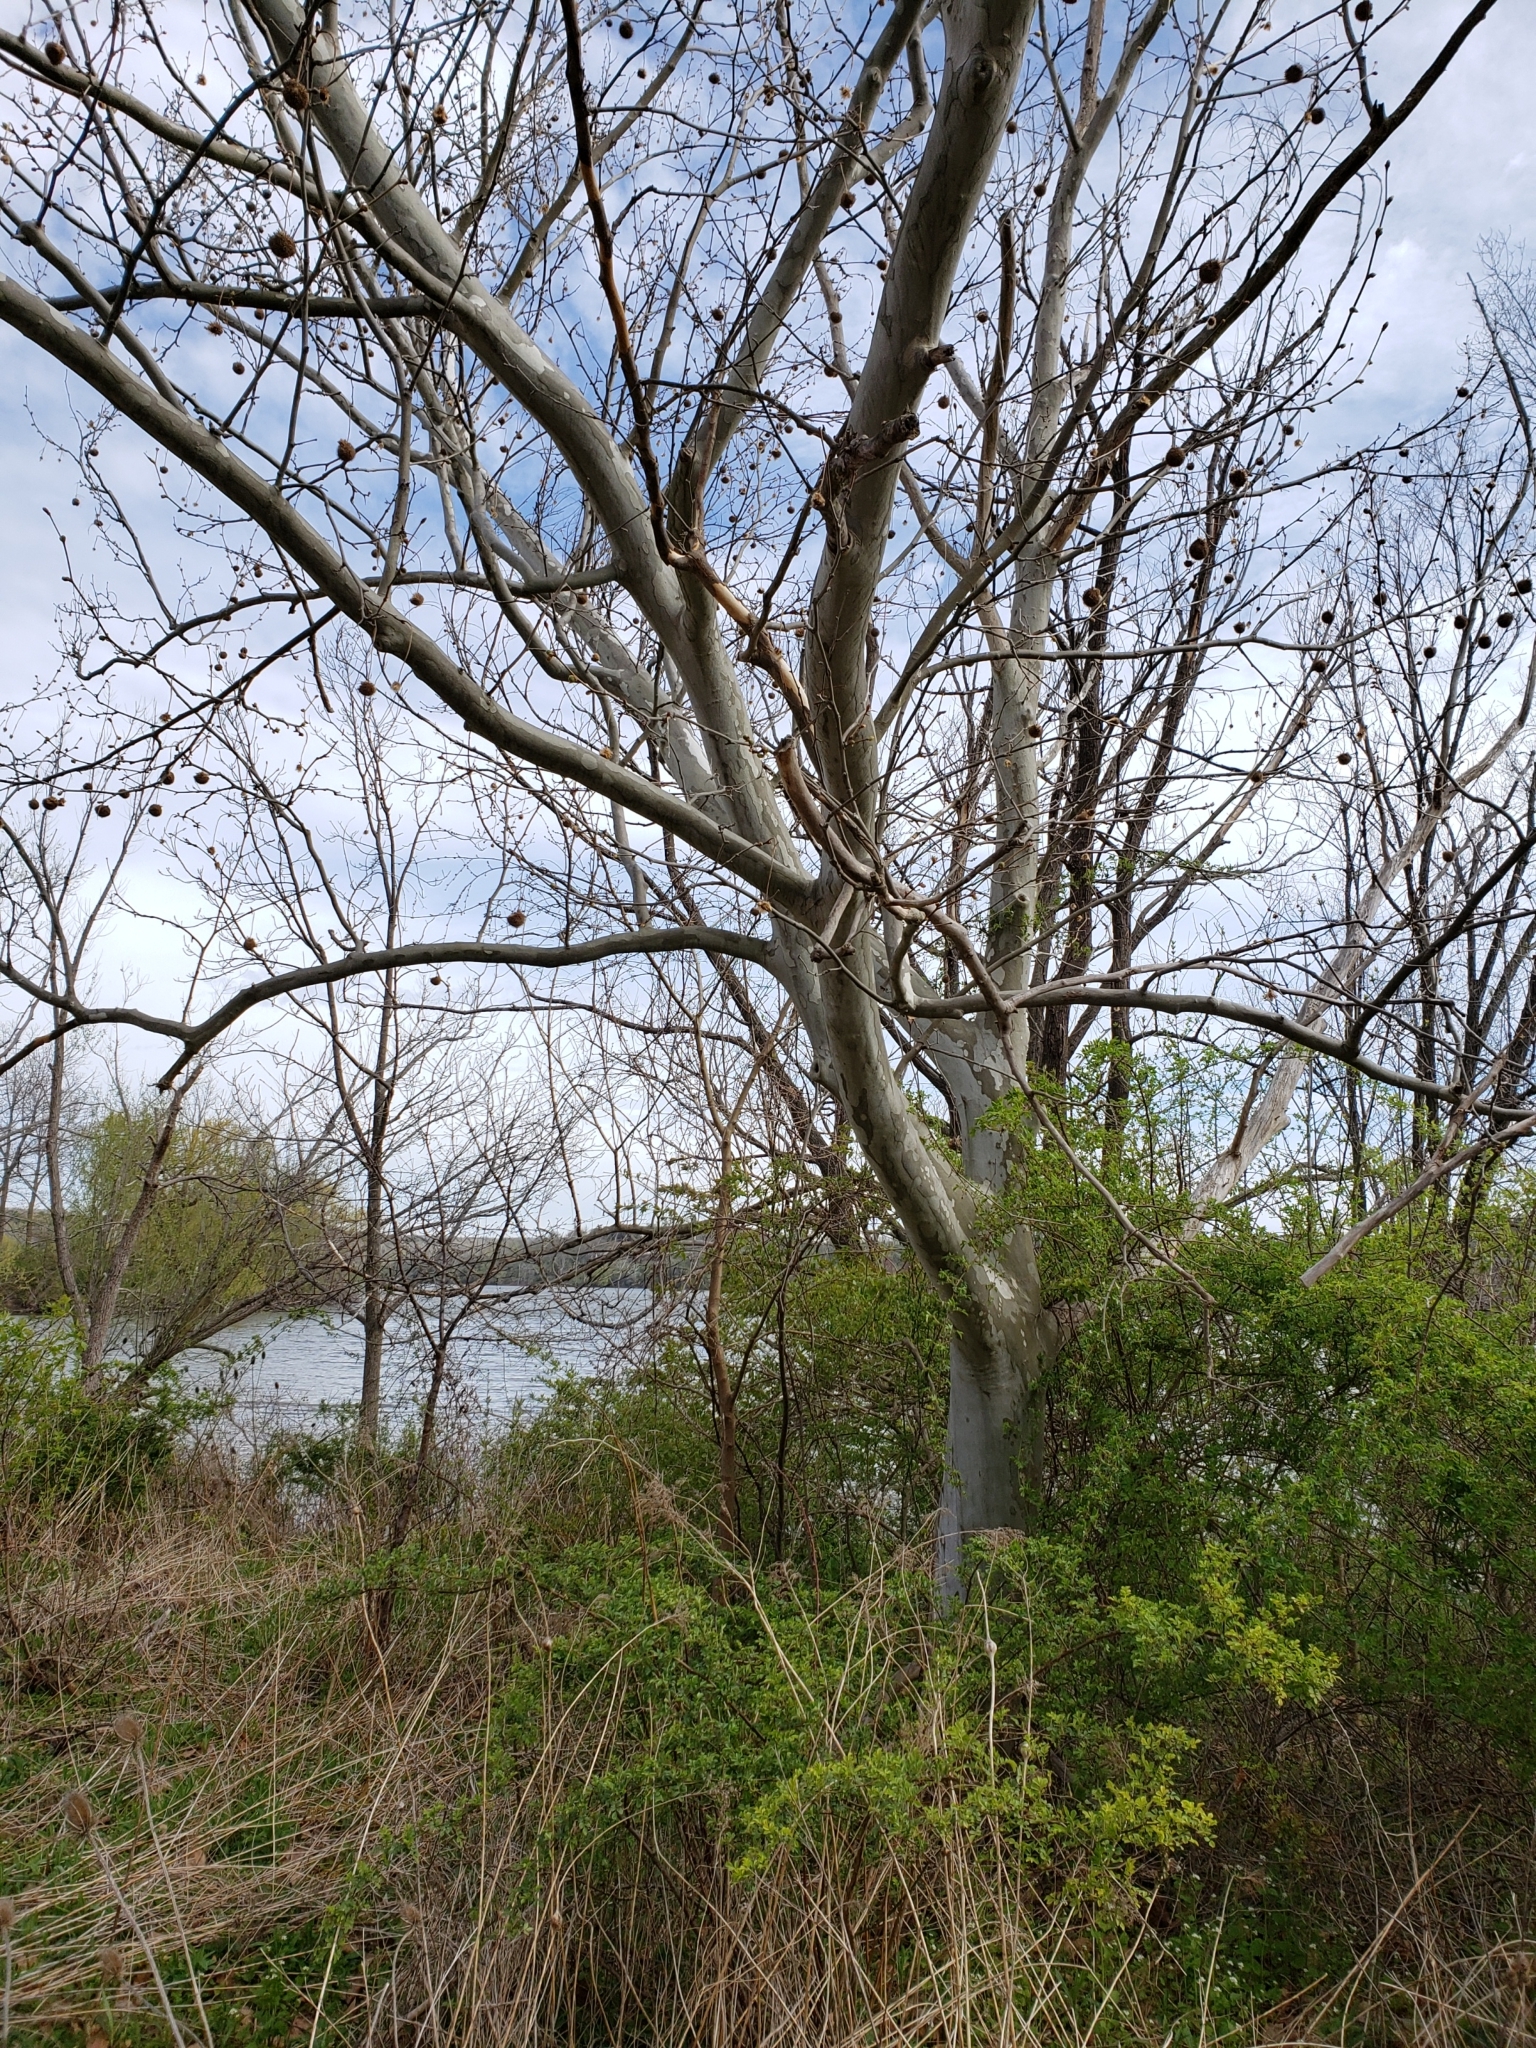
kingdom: Plantae
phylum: Tracheophyta
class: Magnoliopsida
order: Proteales
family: Platanaceae
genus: Platanus
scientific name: Platanus occidentalis
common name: American sycamore
